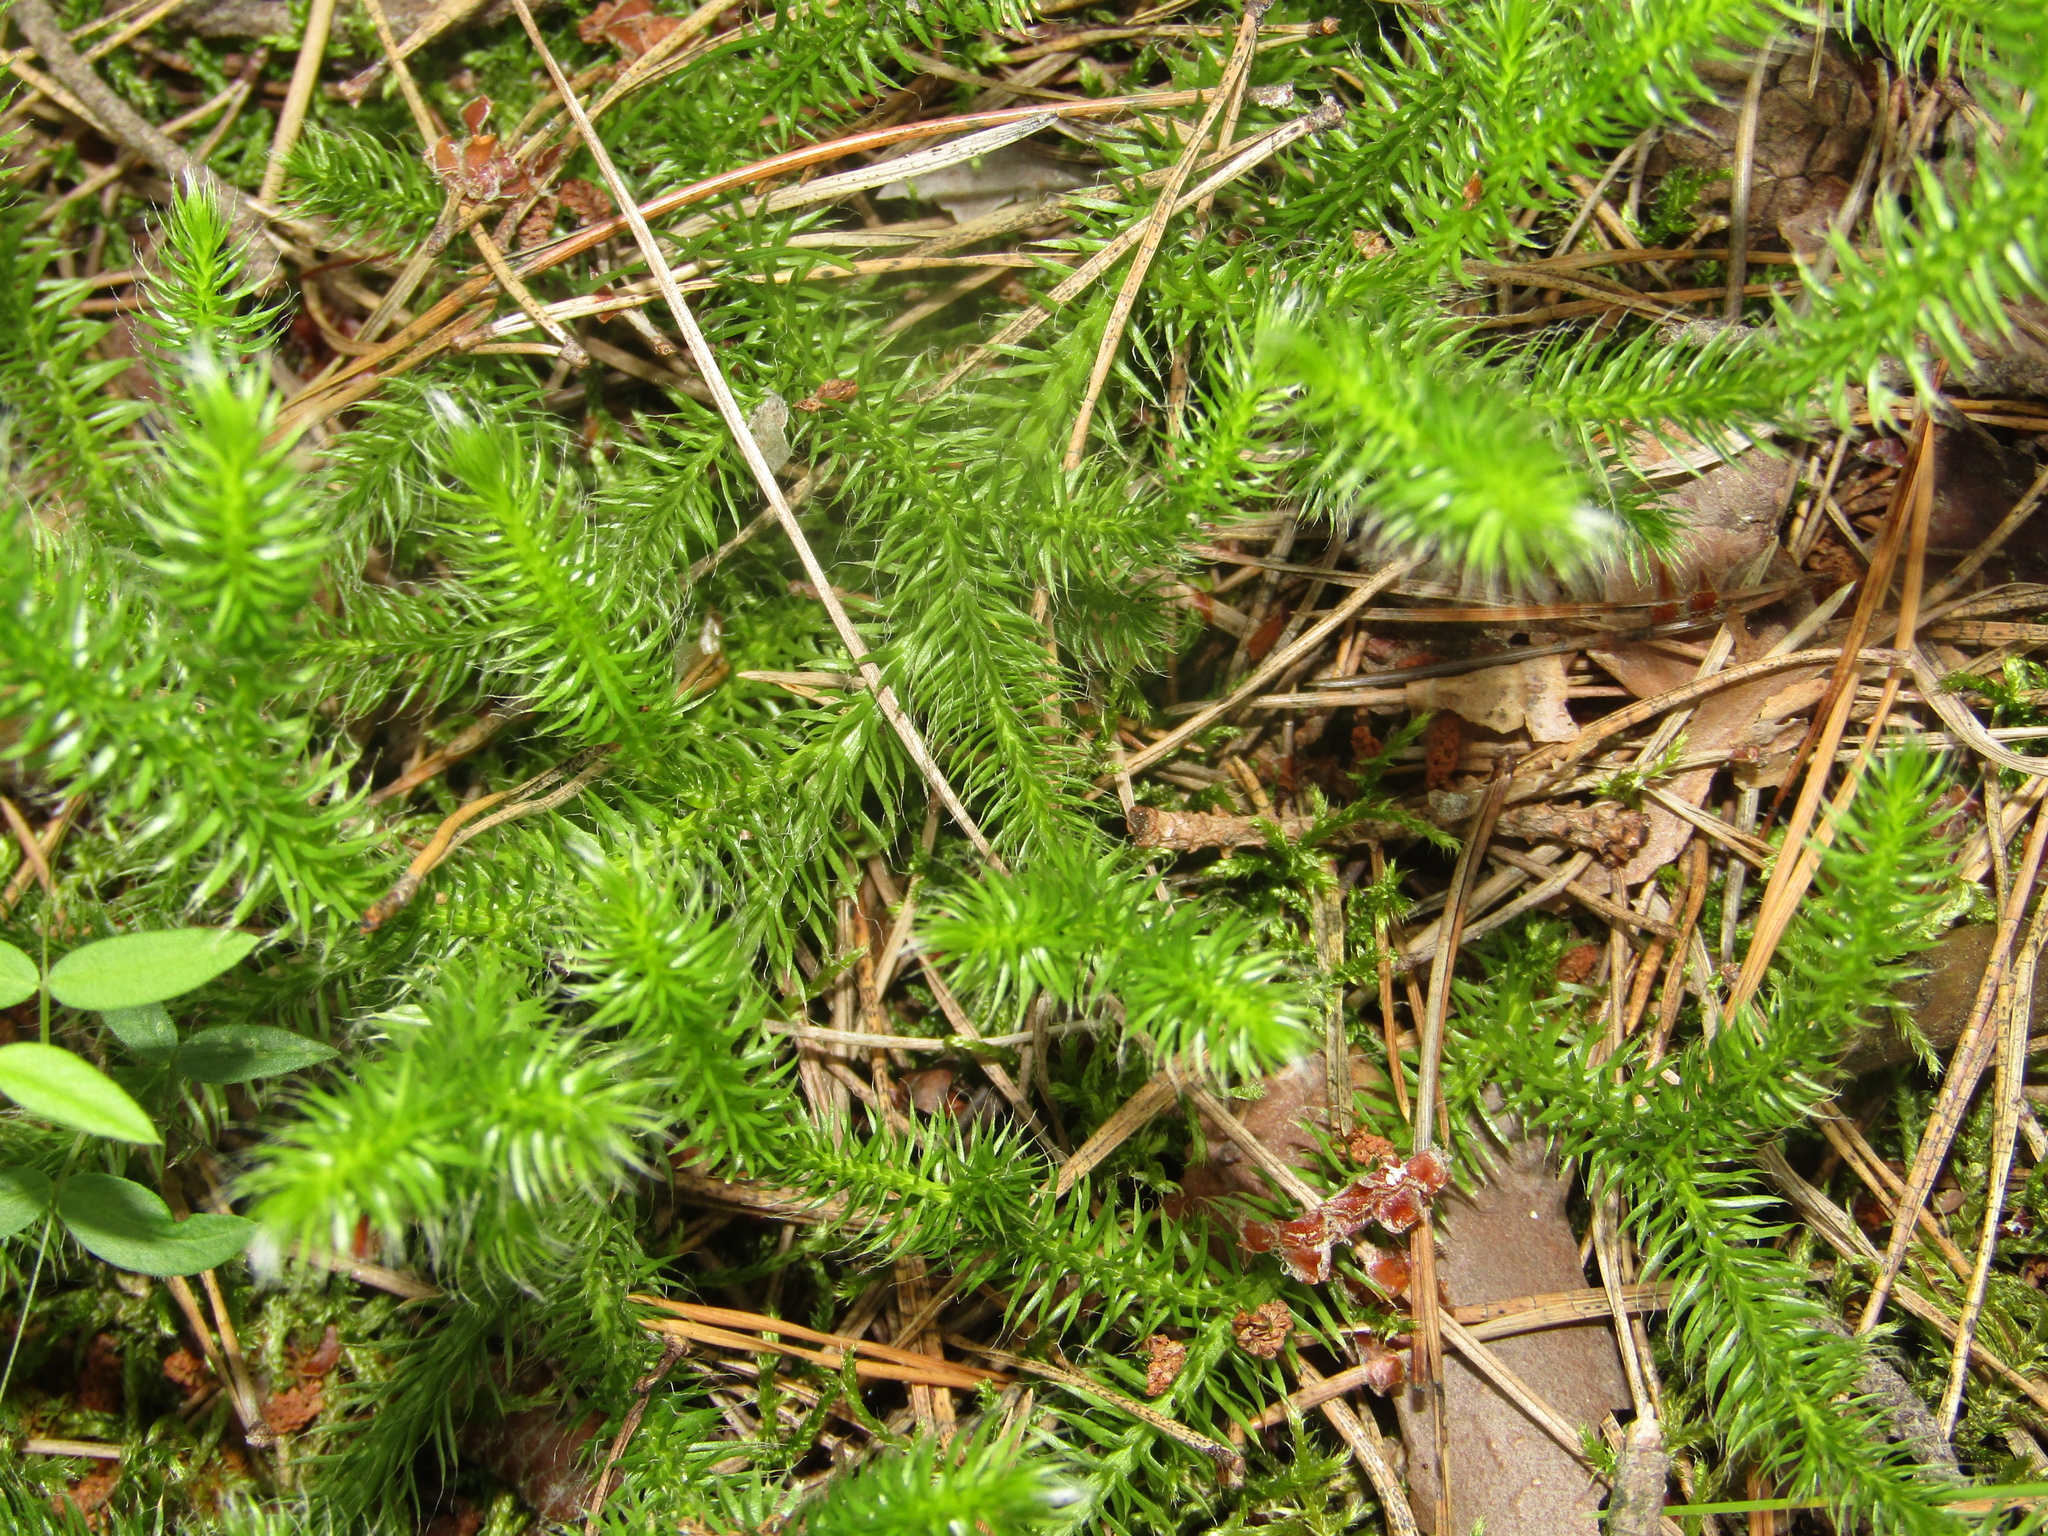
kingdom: Plantae
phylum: Tracheophyta
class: Lycopodiopsida
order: Lycopodiales
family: Lycopodiaceae
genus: Lycopodium
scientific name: Lycopodium clavatum
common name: Stag's-horn clubmoss
